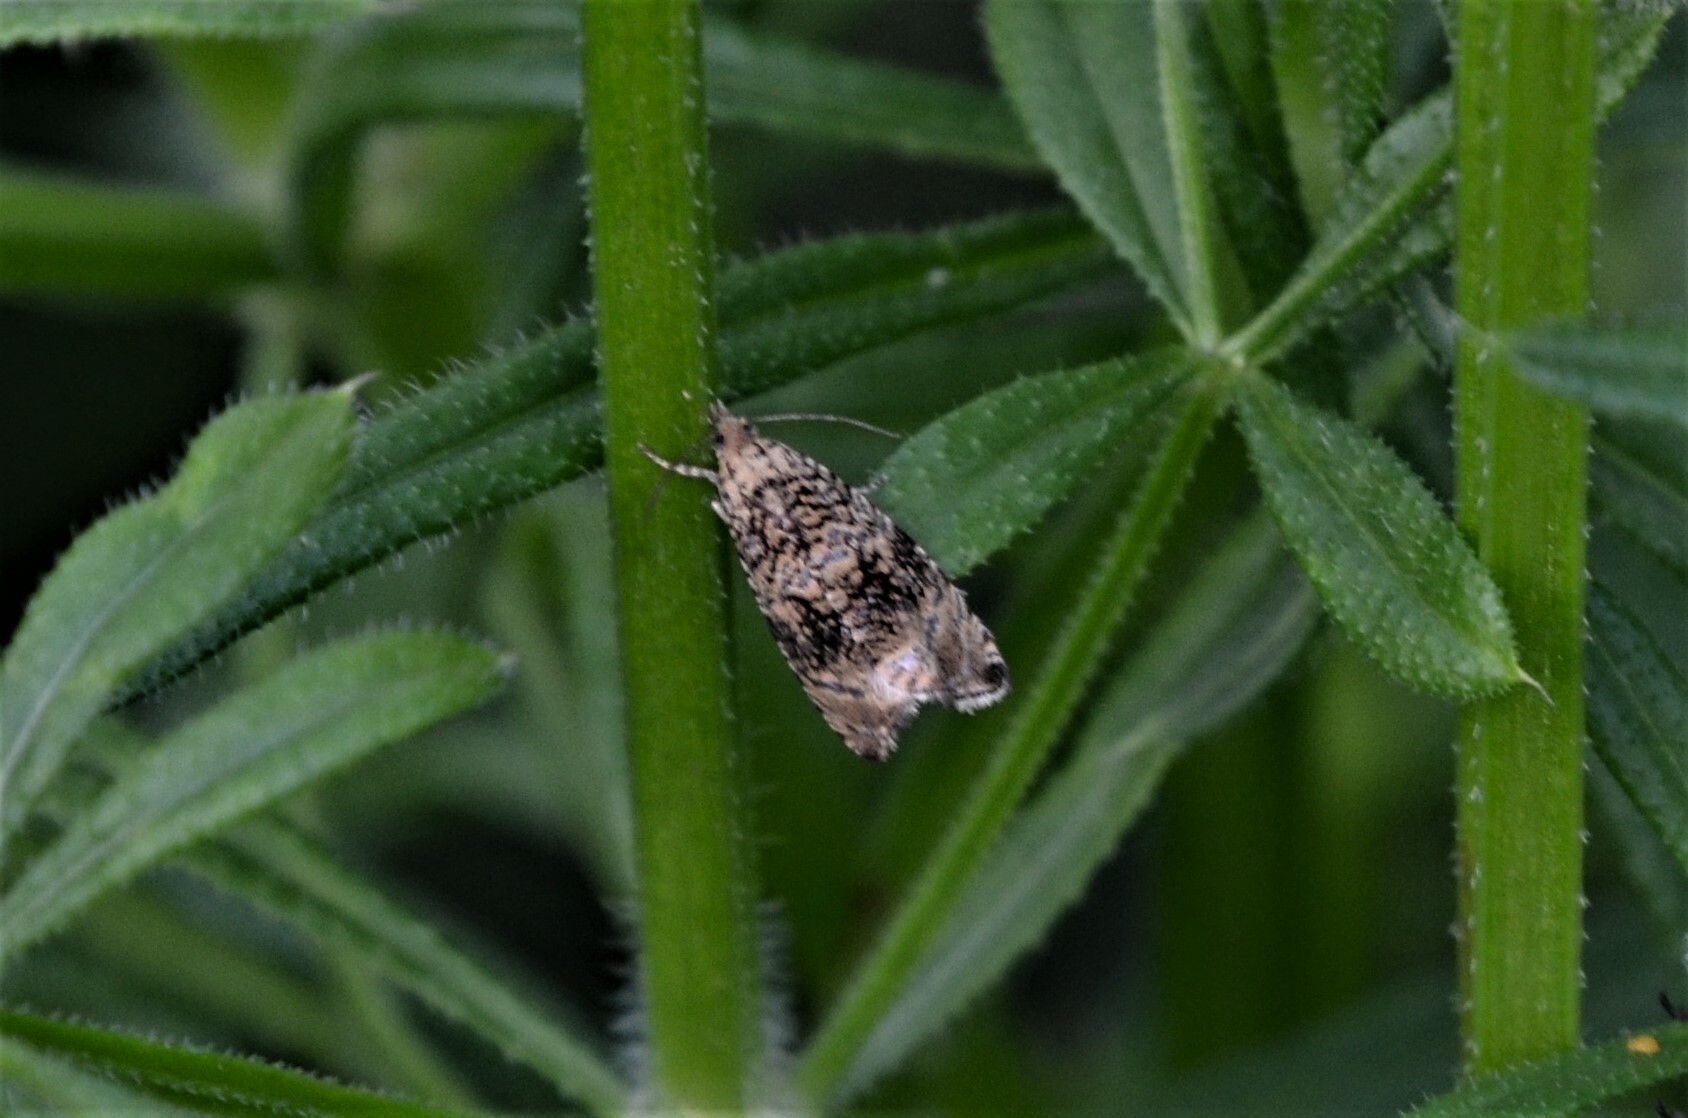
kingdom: Animalia
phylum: Arthropoda
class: Insecta
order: Lepidoptera
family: Tortricidae
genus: Syricoris
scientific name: Syricoris lacunana
